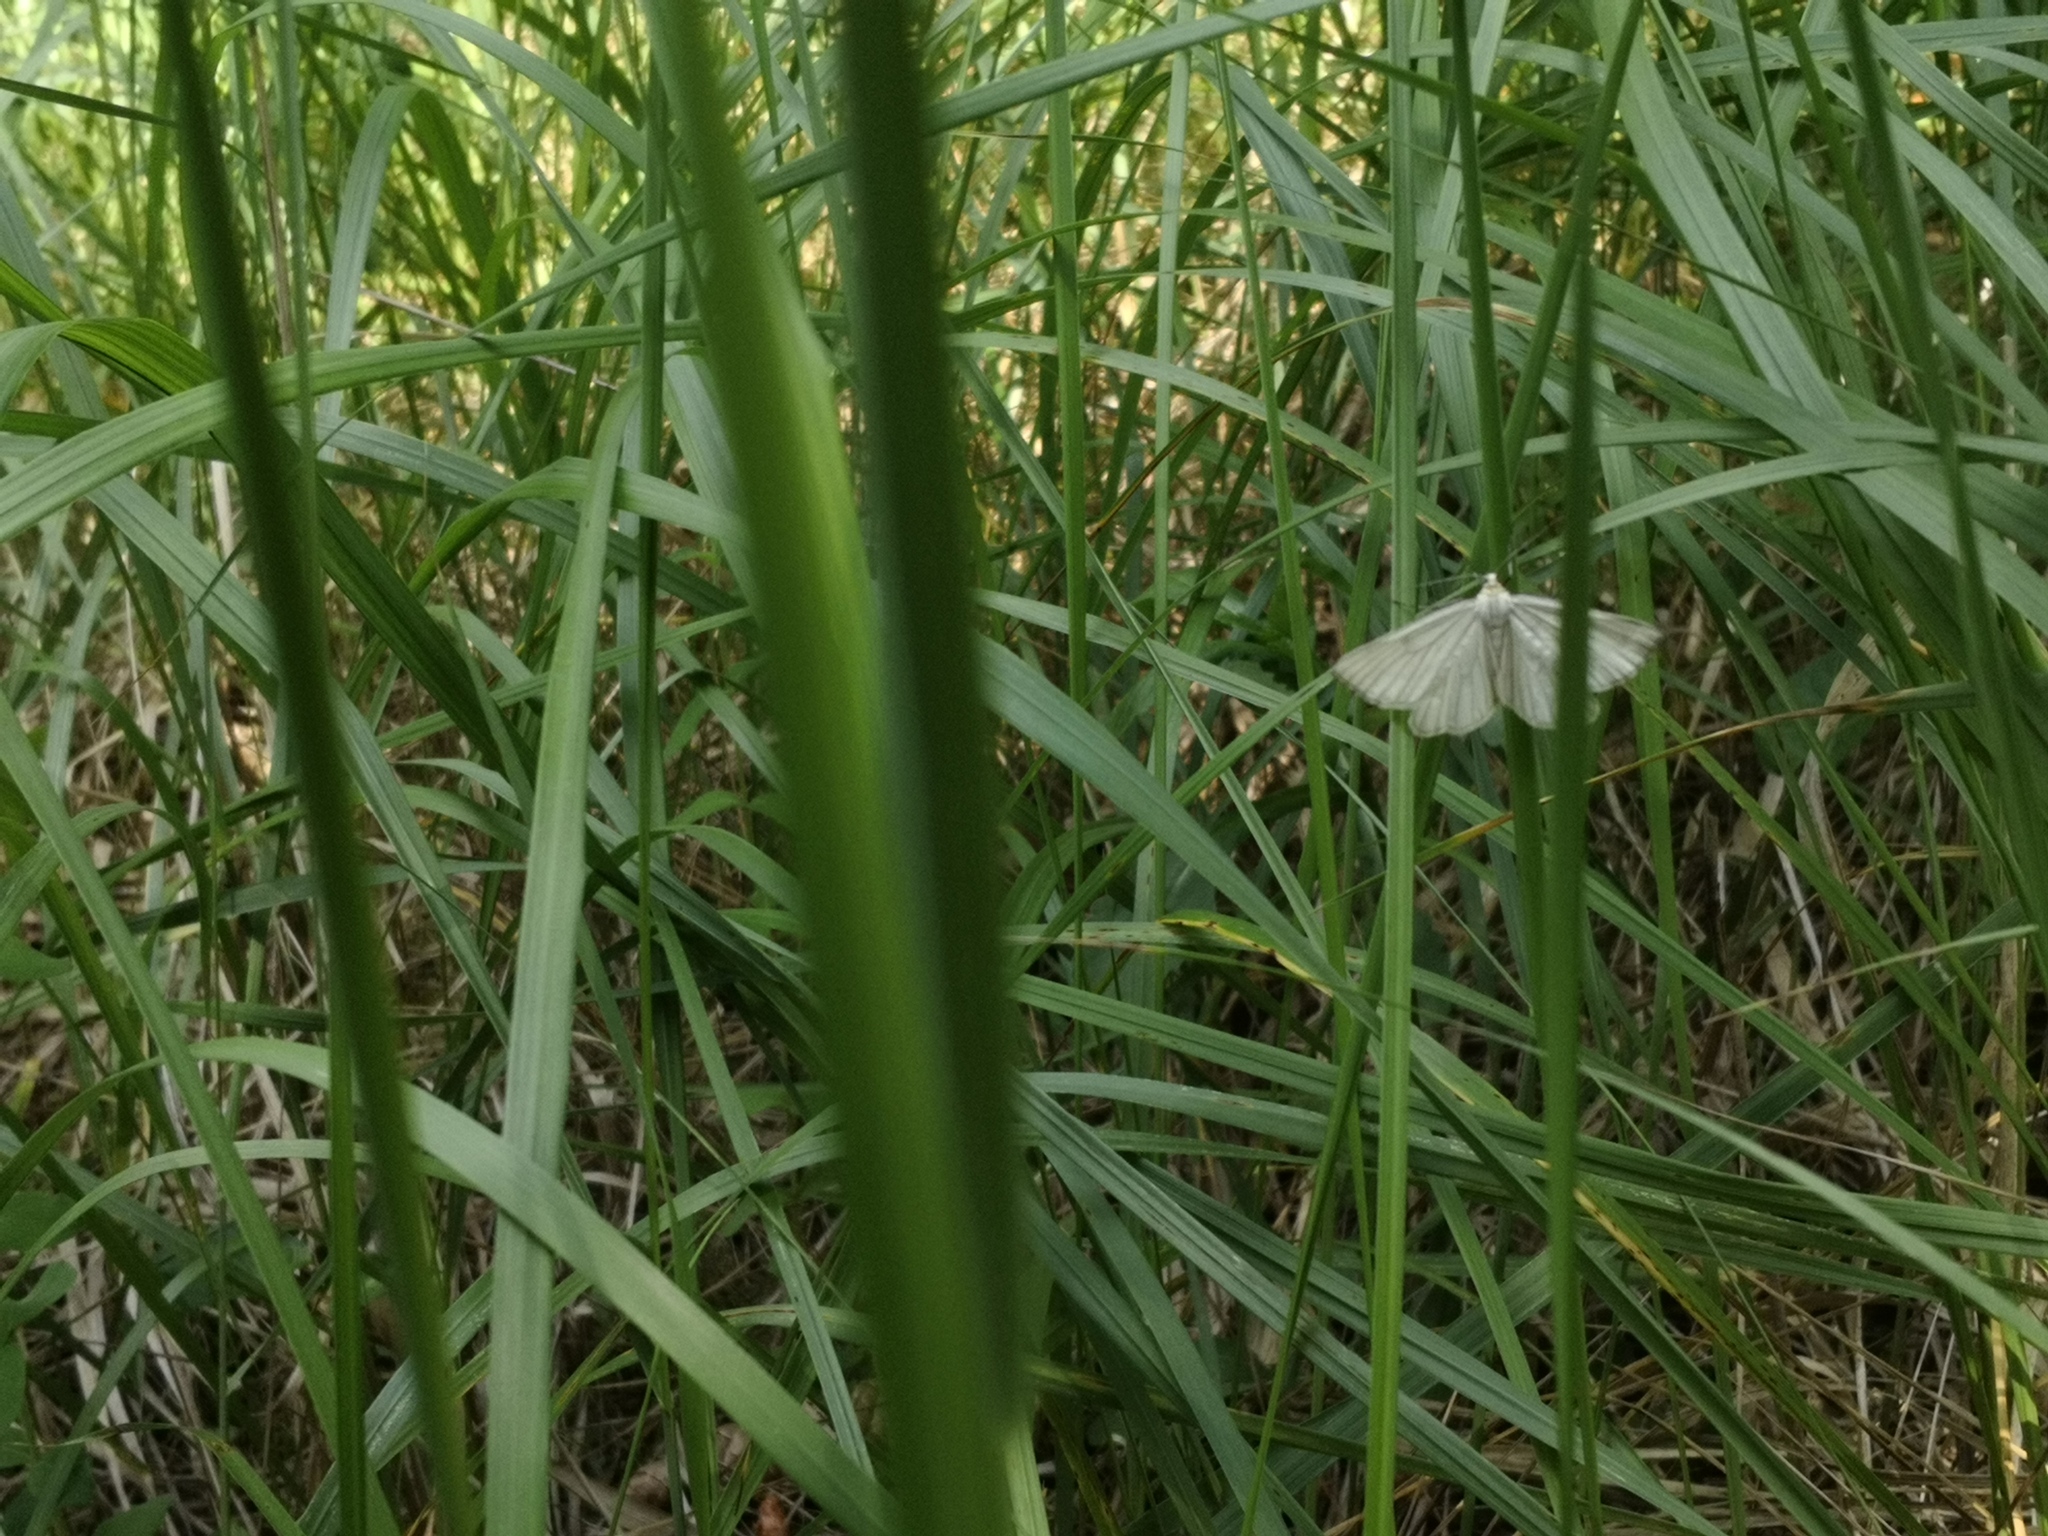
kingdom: Animalia
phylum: Arthropoda
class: Insecta
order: Lepidoptera
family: Geometridae
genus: Siona
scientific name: Siona lineata
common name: Black-veined moth
